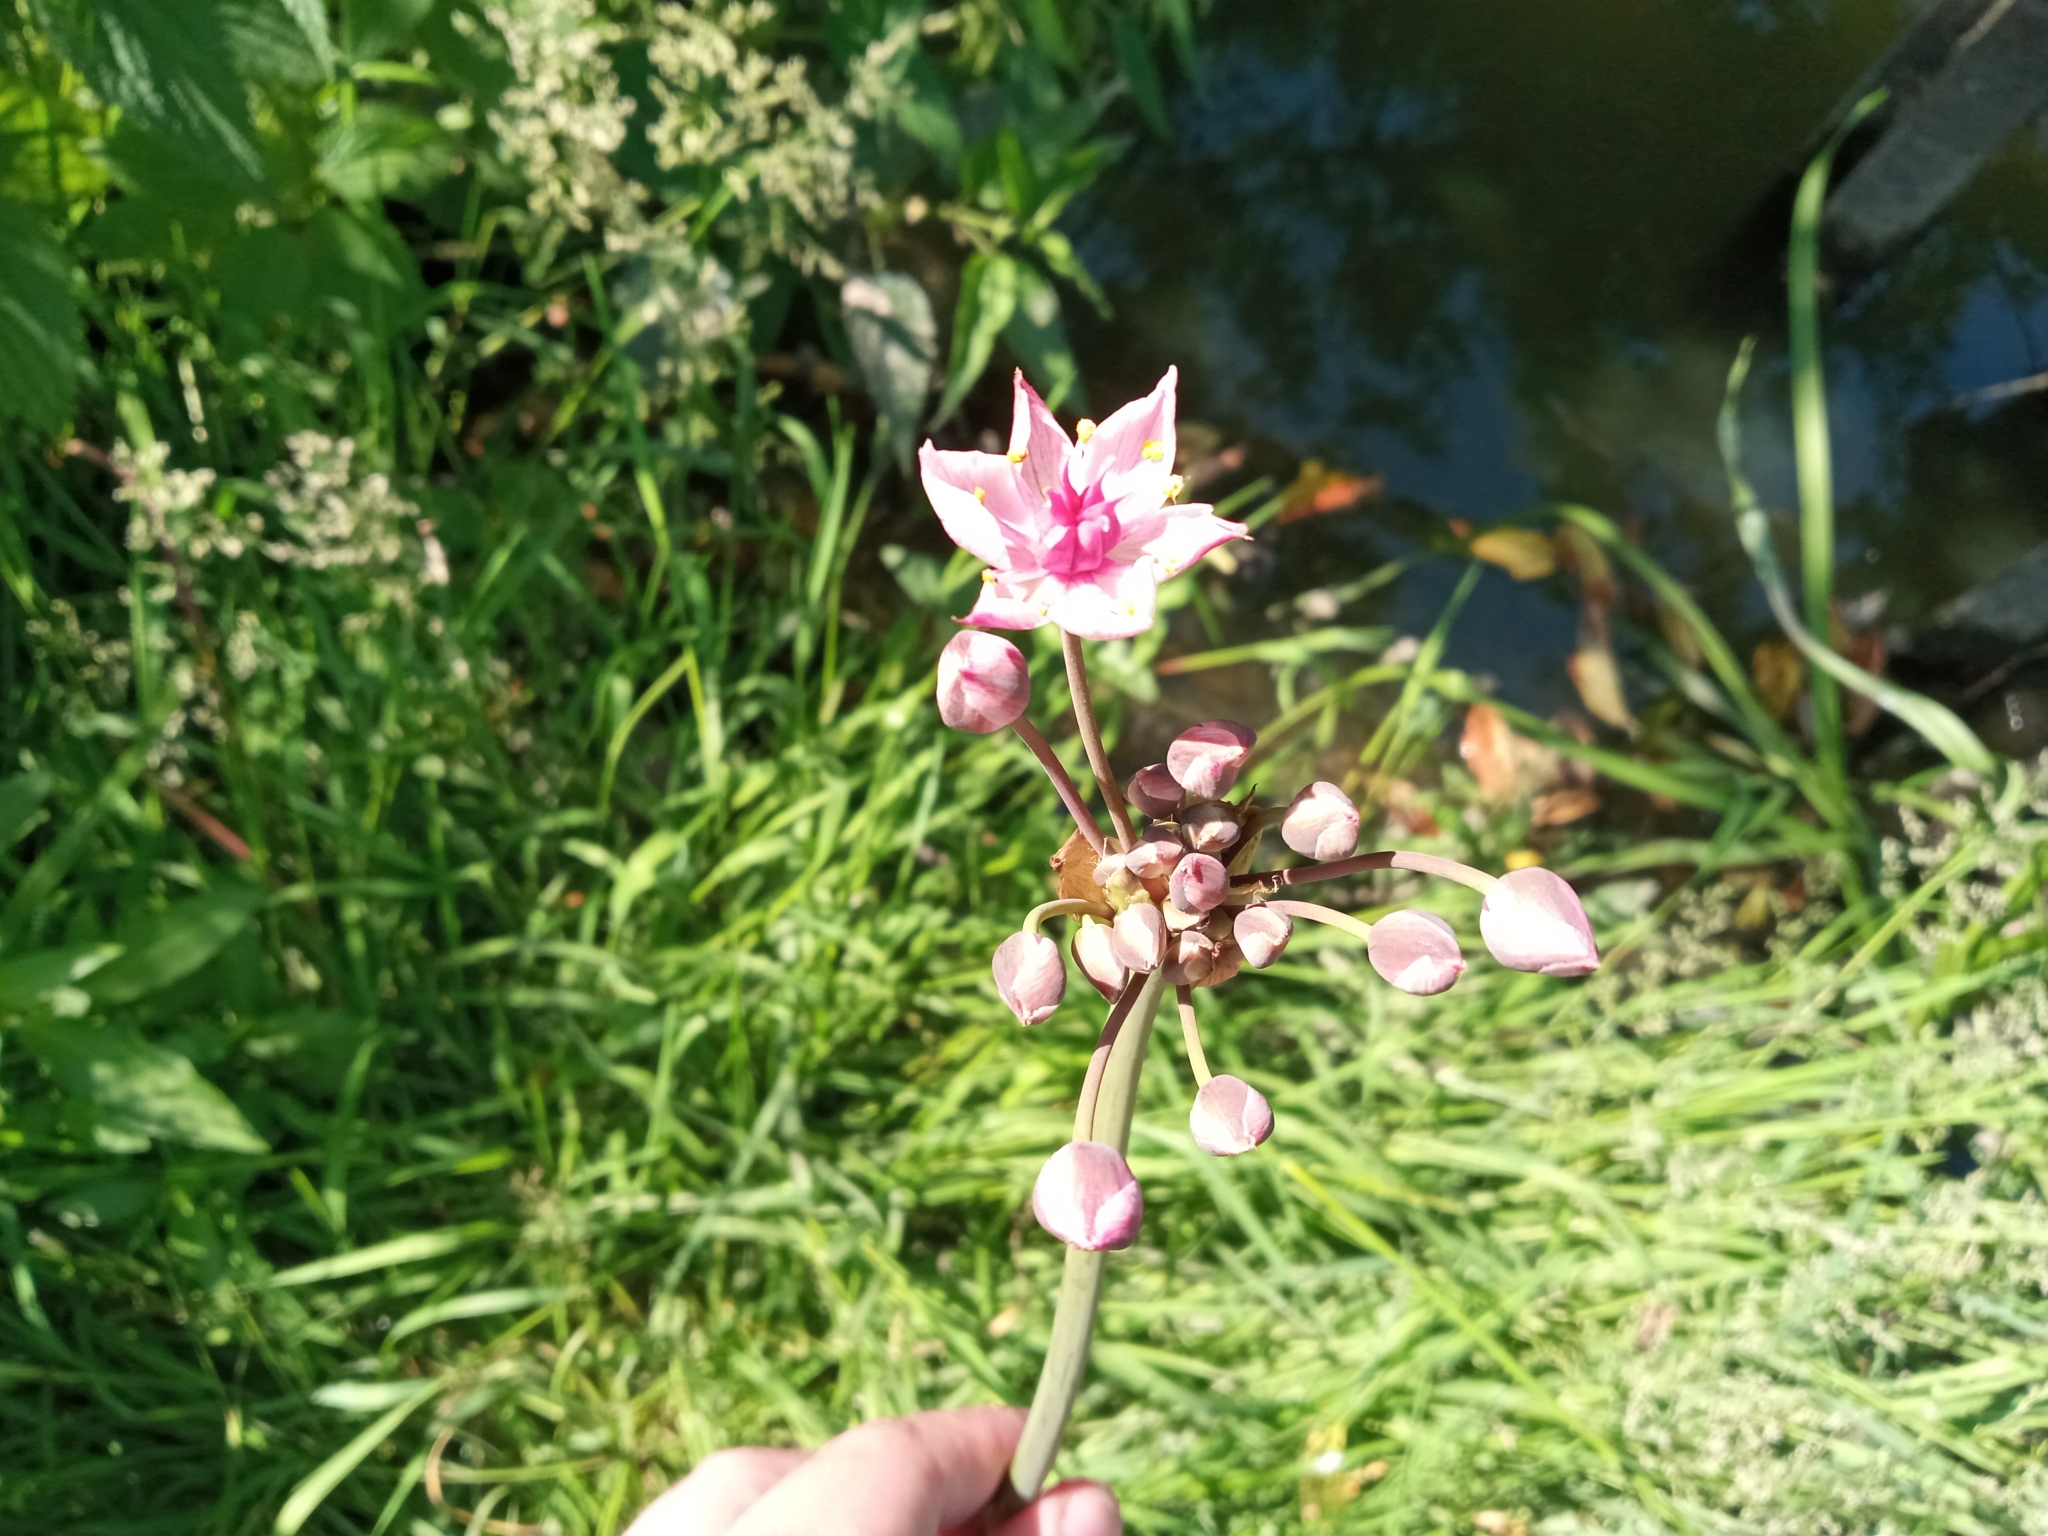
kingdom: Plantae
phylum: Tracheophyta
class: Liliopsida
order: Alismatales
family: Butomaceae
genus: Butomus
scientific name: Butomus umbellatus
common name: Flowering-rush
